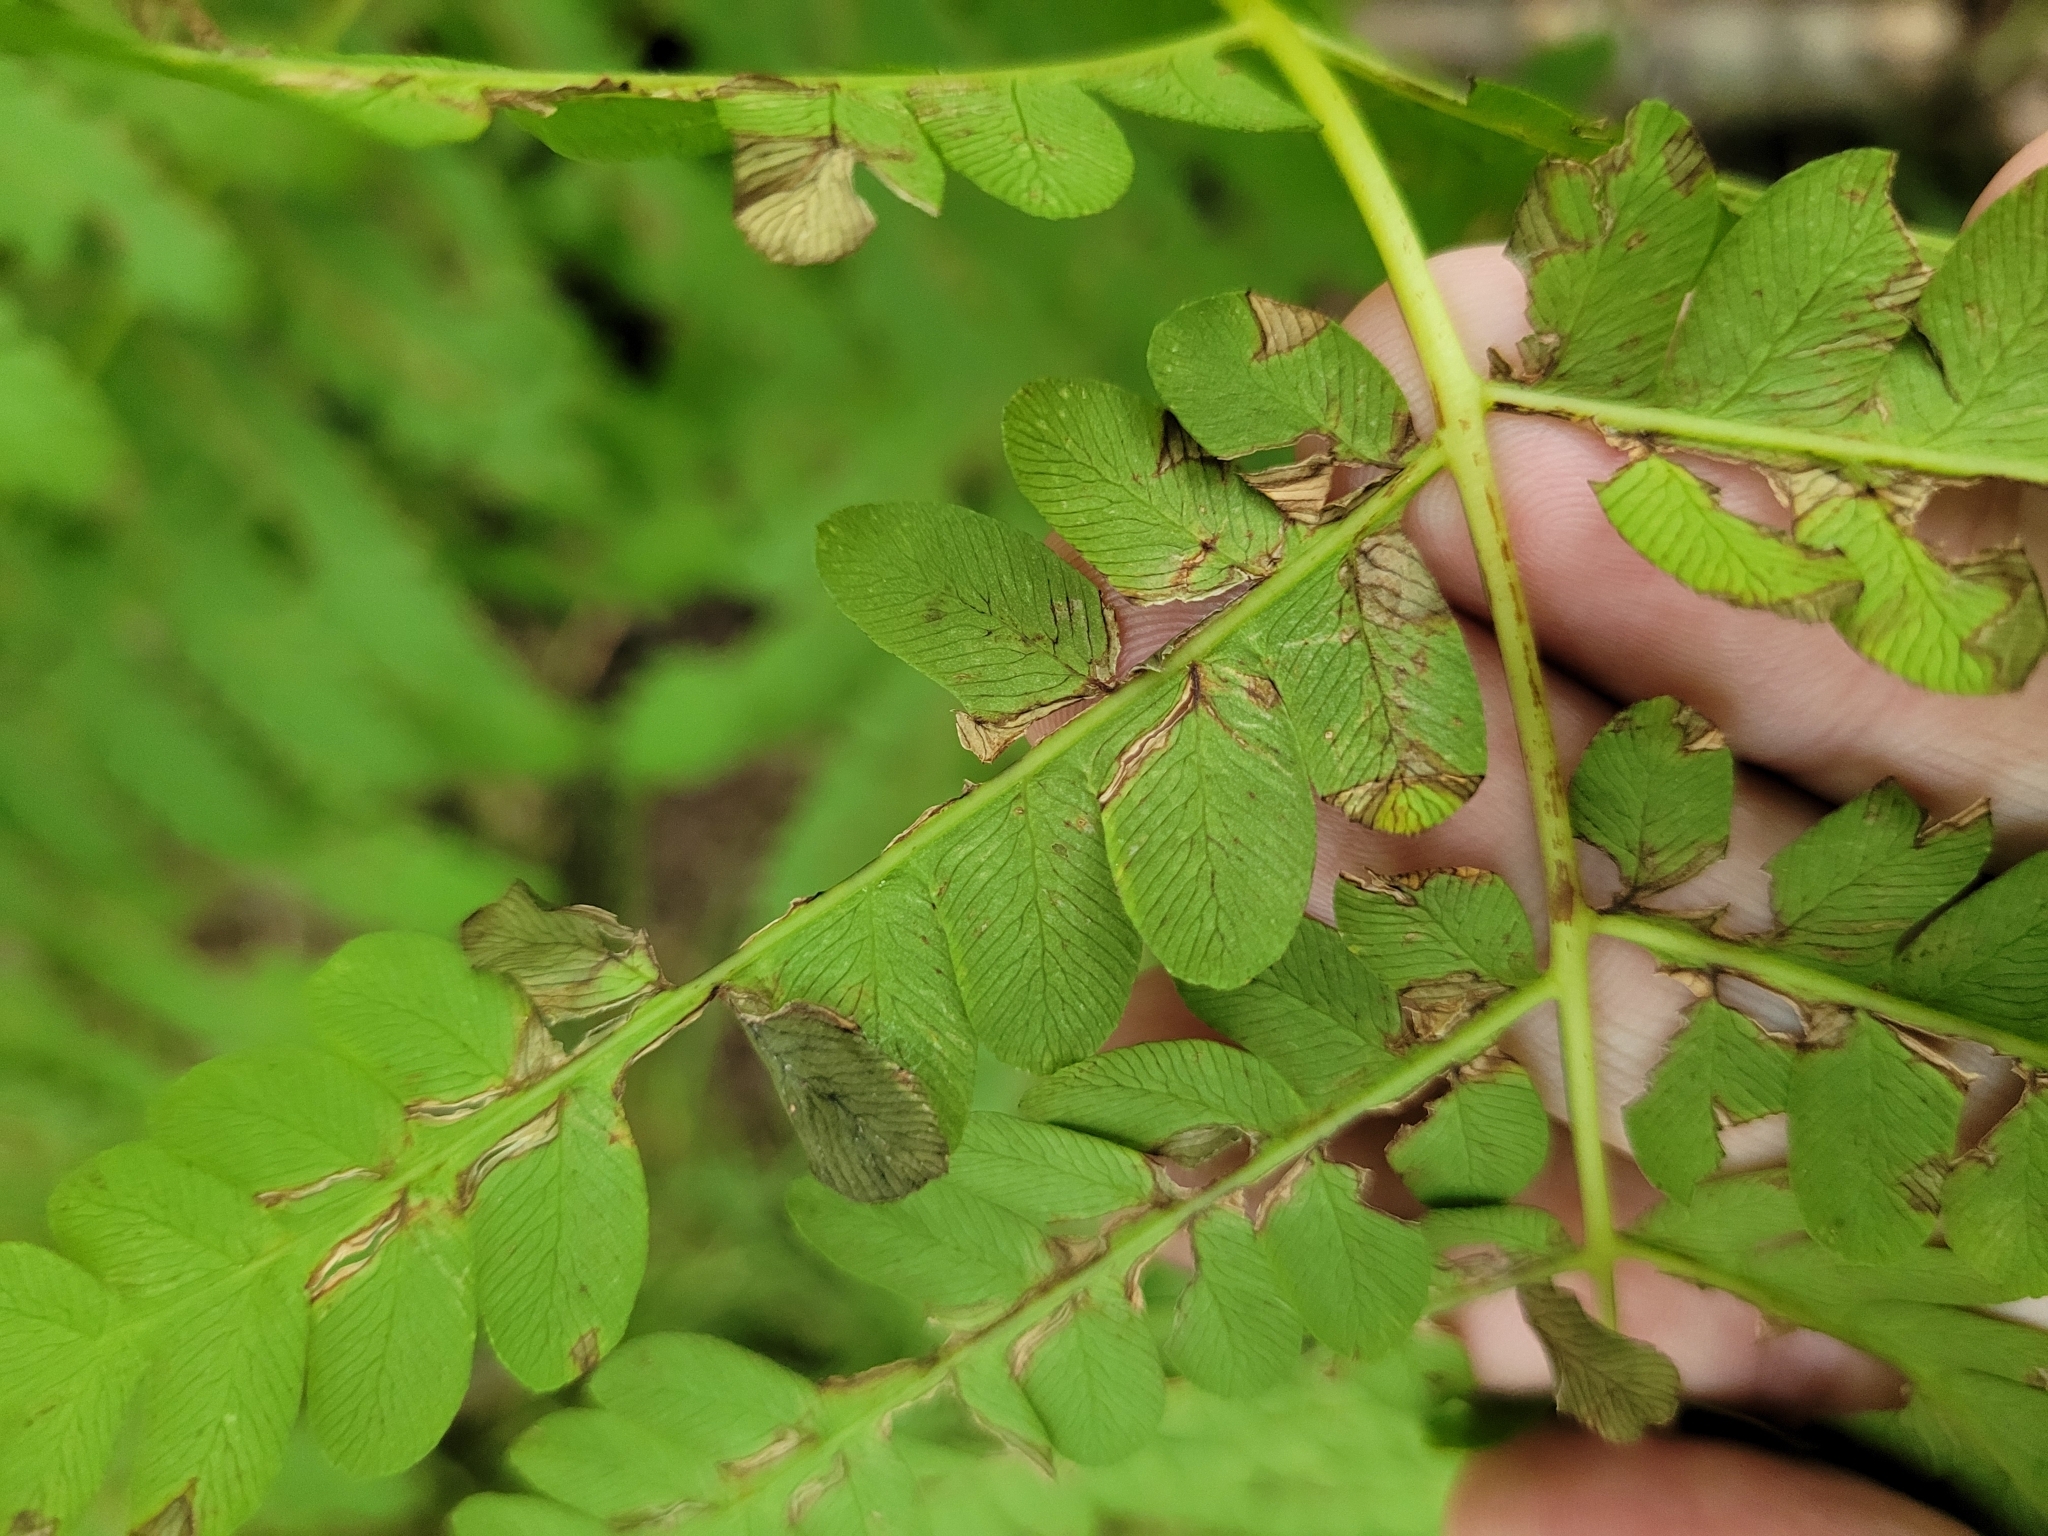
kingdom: Plantae
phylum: Tracheophyta
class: Polypodiopsida
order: Osmundales
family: Osmundaceae
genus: Claytosmunda
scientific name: Claytosmunda claytoniana
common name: Clayton's fern
